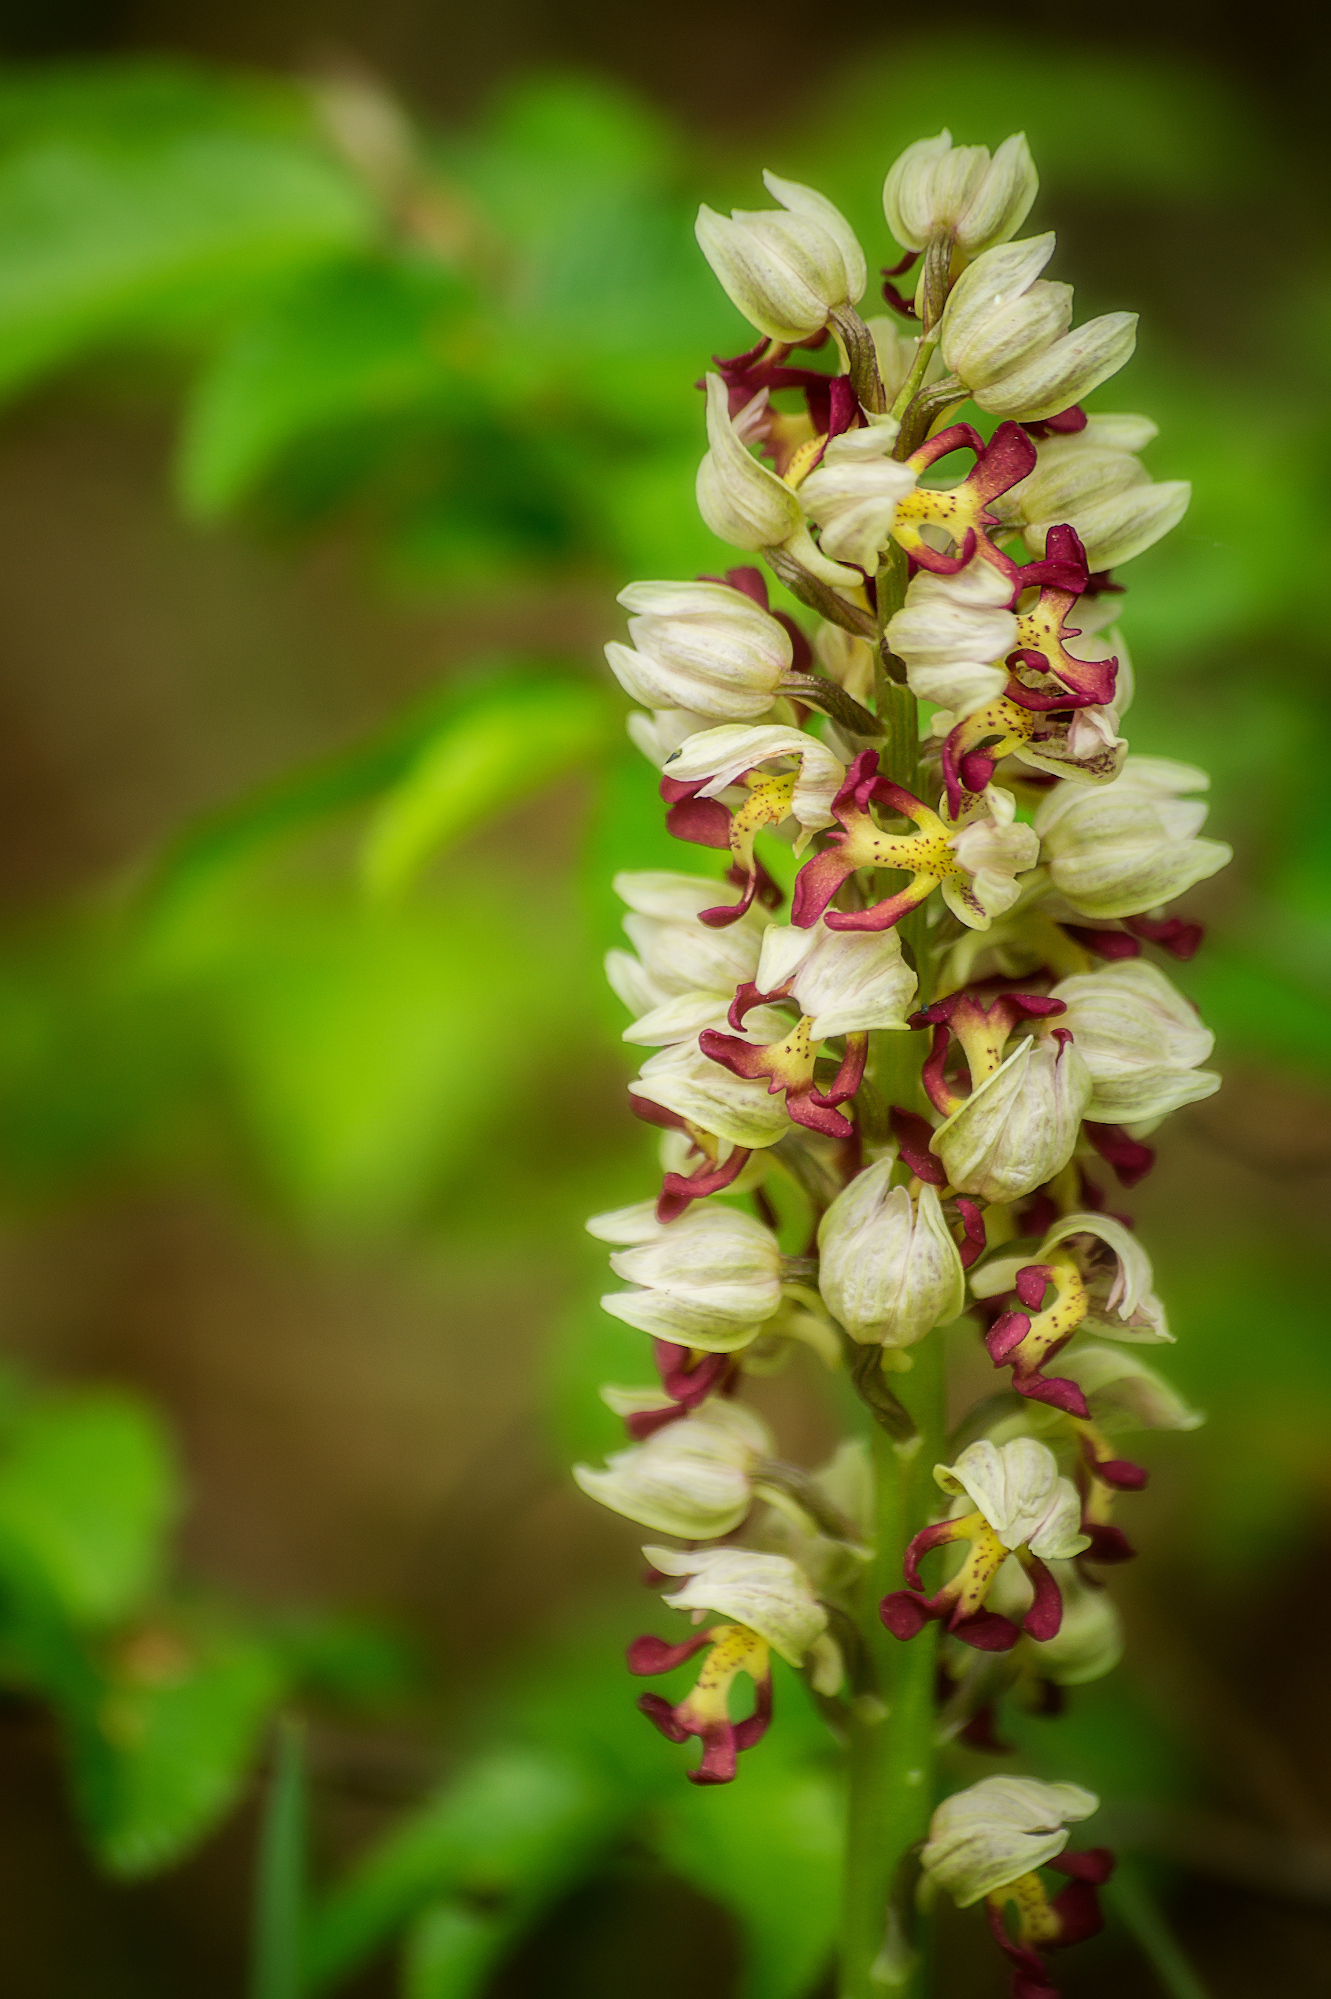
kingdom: Plantae
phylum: Tracheophyta
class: Liliopsida
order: Asparagales
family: Orchidaceae
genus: Orchis
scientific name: Orchis calliantha
